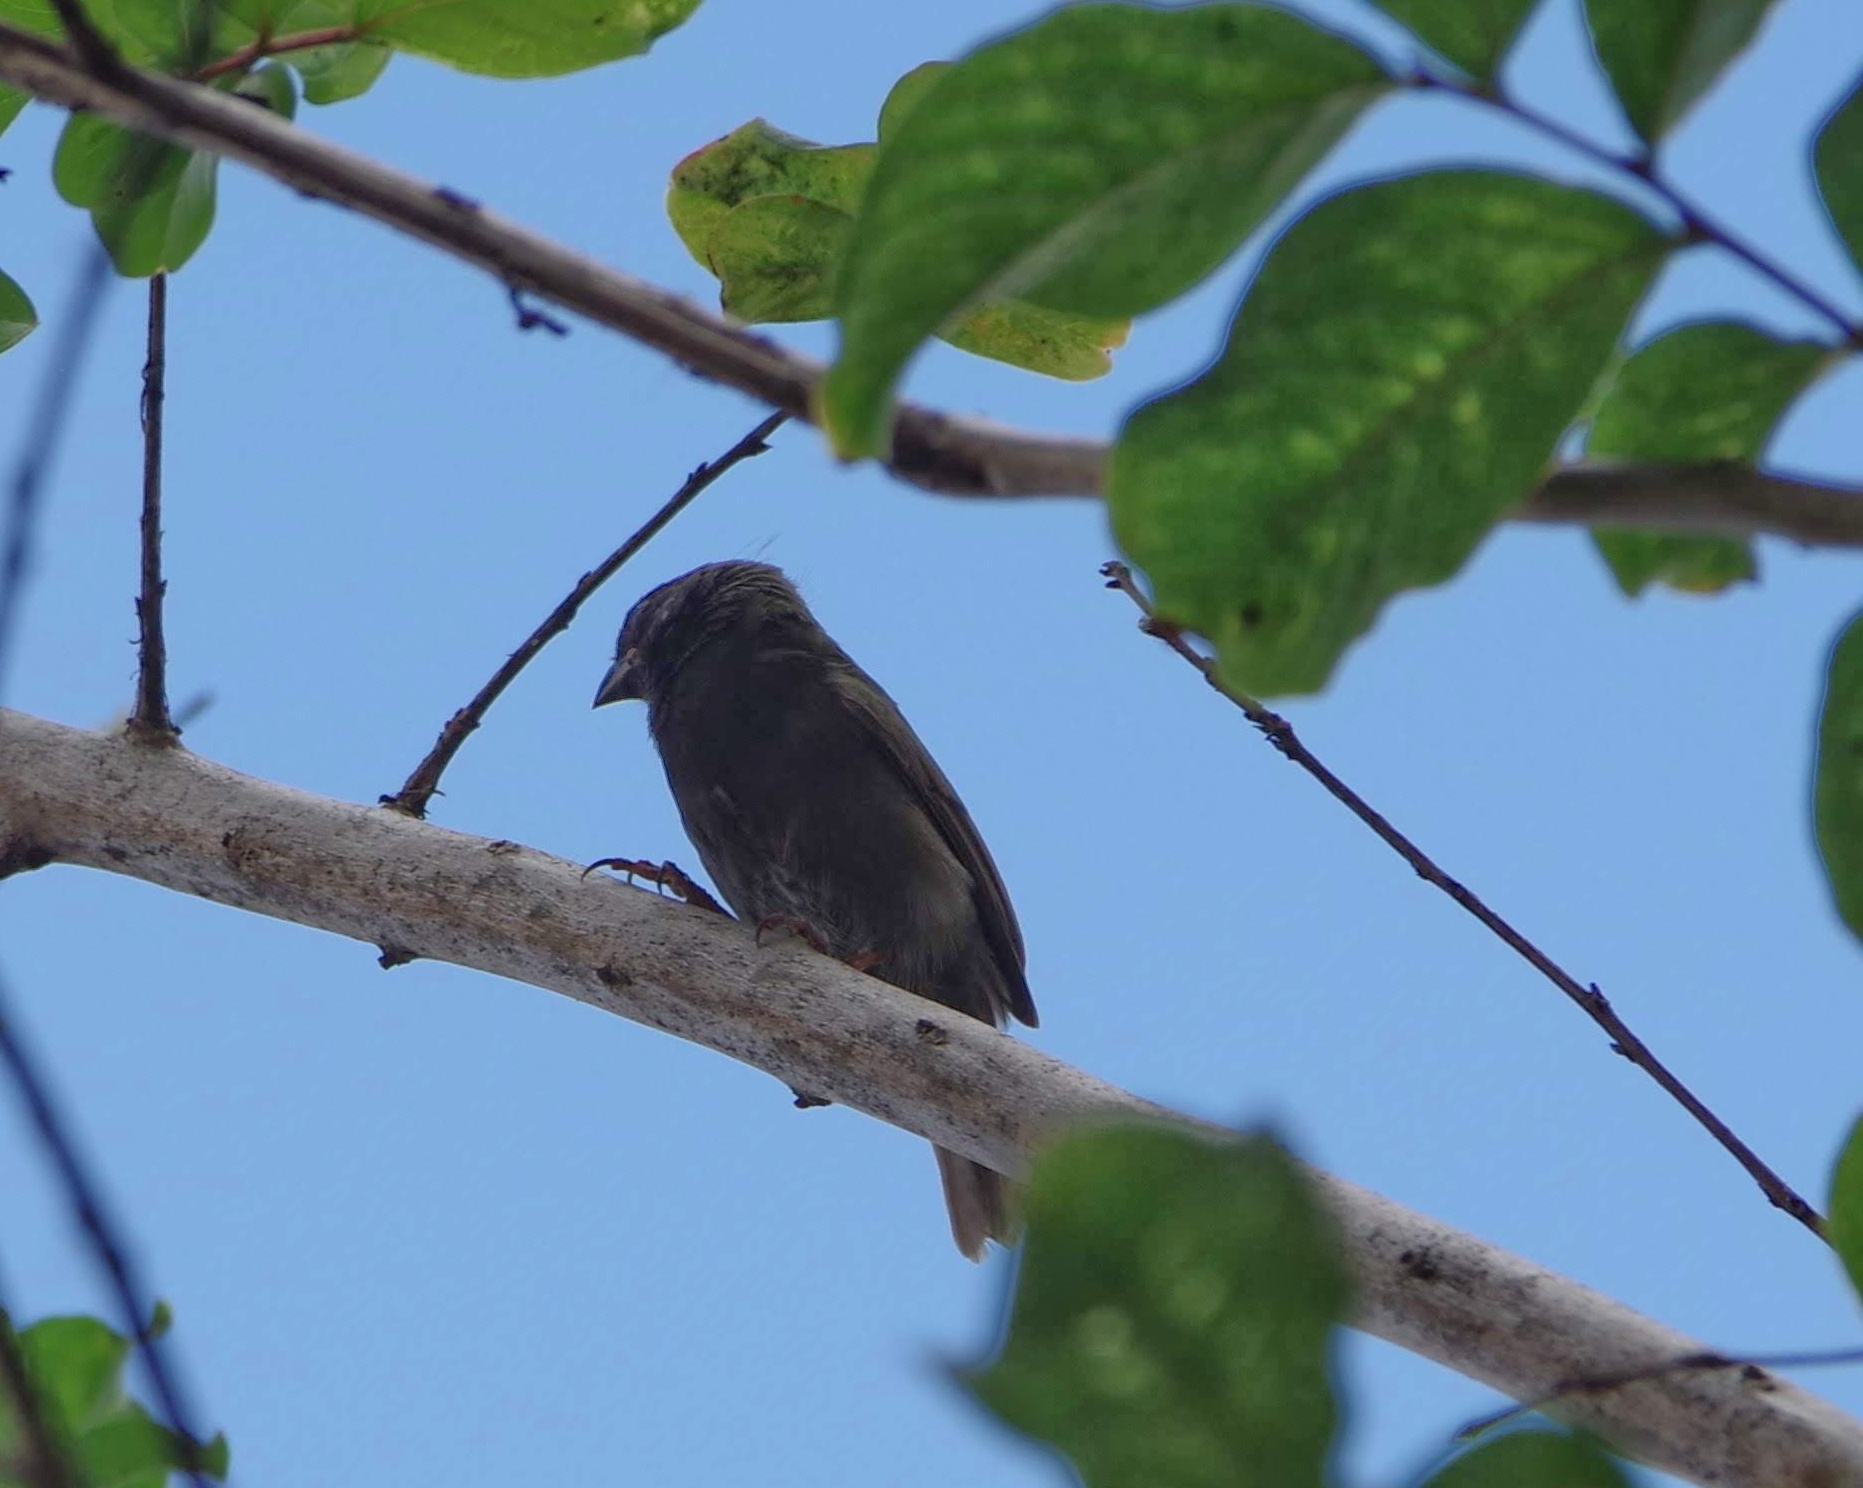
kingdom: Animalia
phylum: Chordata
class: Aves
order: Passeriformes
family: Thraupidae
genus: Melanospiza
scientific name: Melanospiza bicolor
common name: Black-faced grassquit
